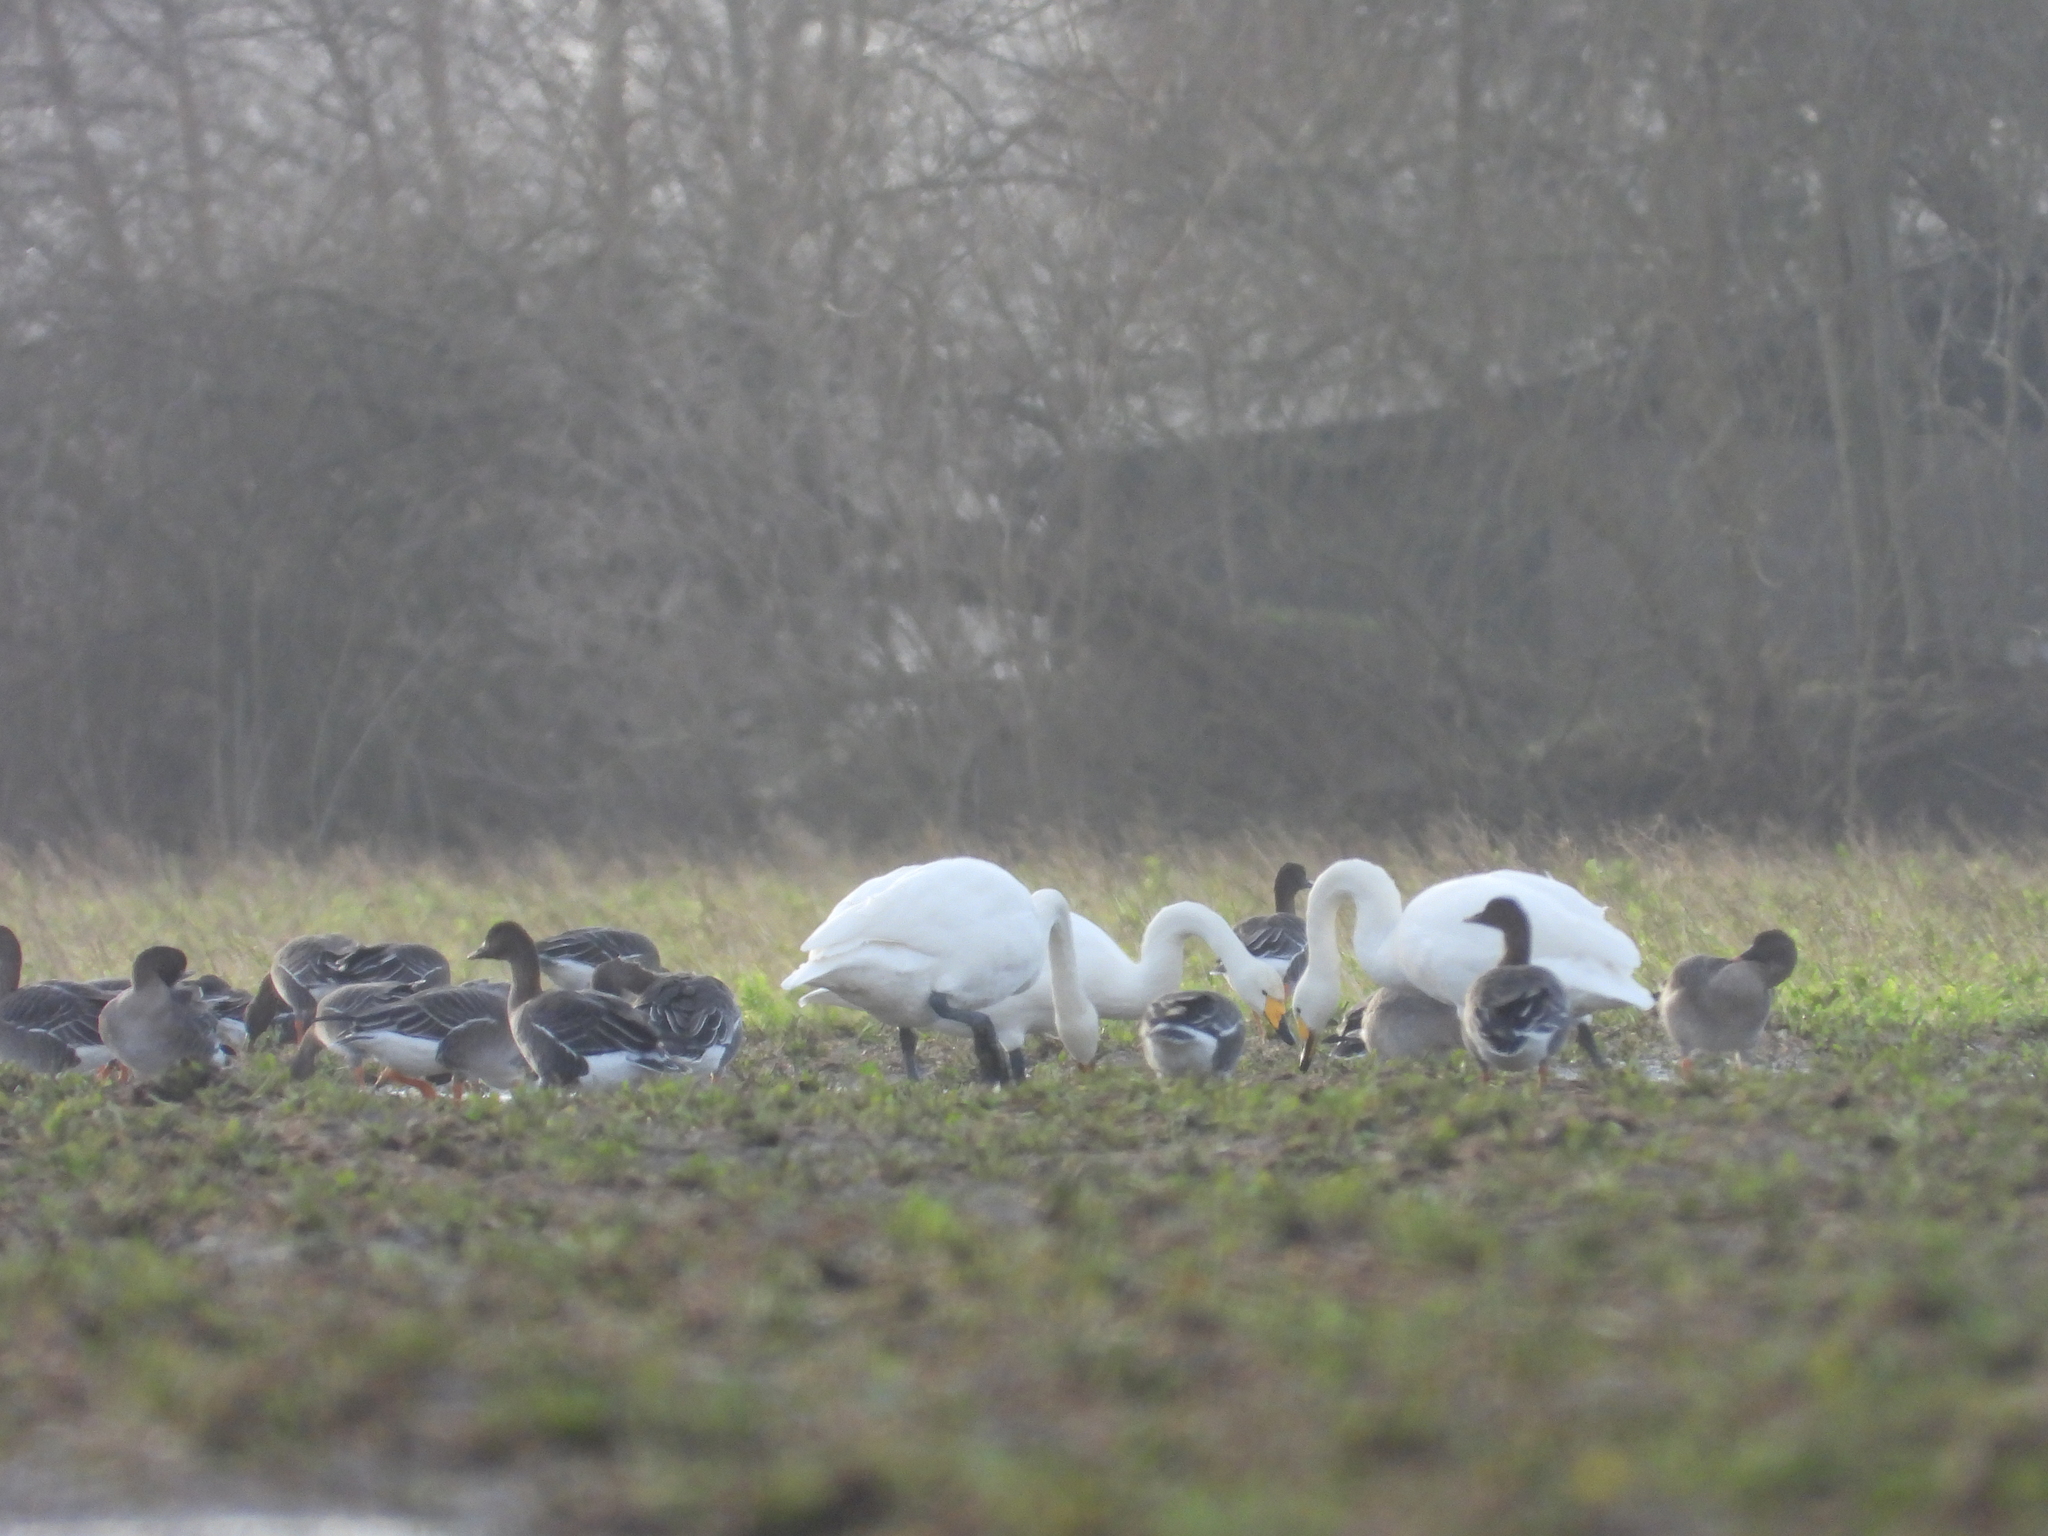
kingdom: Animalia
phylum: Chordata
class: Aves
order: Anseriformes
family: Anatidae
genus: Cygnus
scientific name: Cygnus cygnus
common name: Whooper swan
